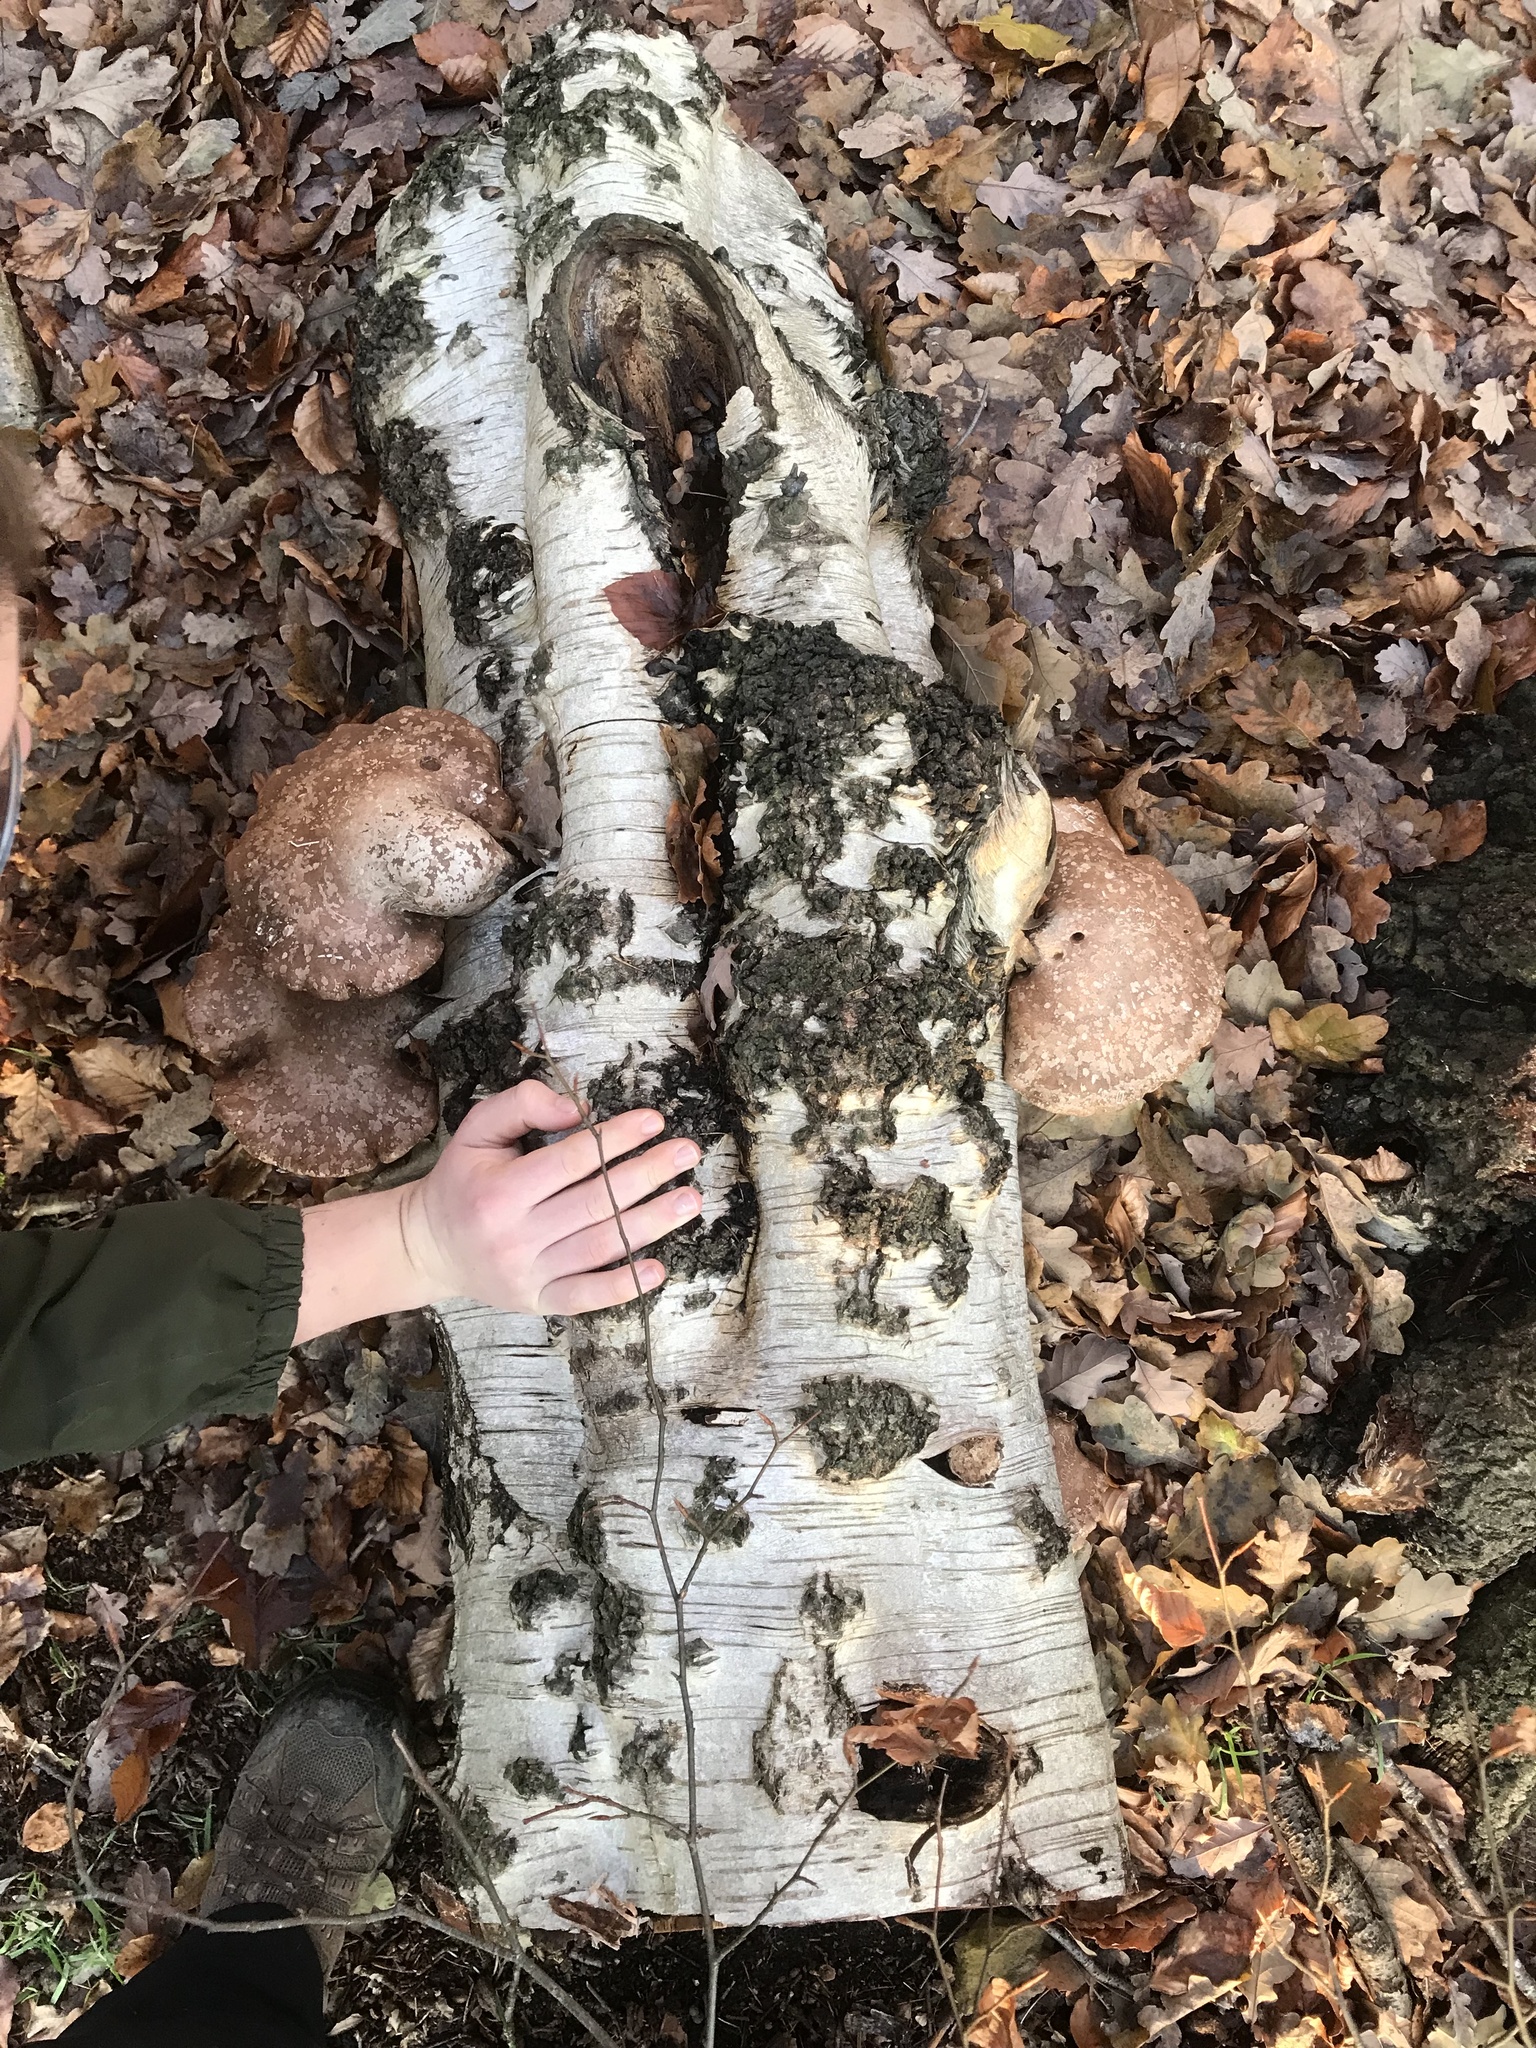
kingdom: Fungi
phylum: Basidiomycota
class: Agaricomycetes
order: Polyporales
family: Fomitopsidaceae
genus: Fomitopsis
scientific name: Fomitopsis betulina
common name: Birch polypore
